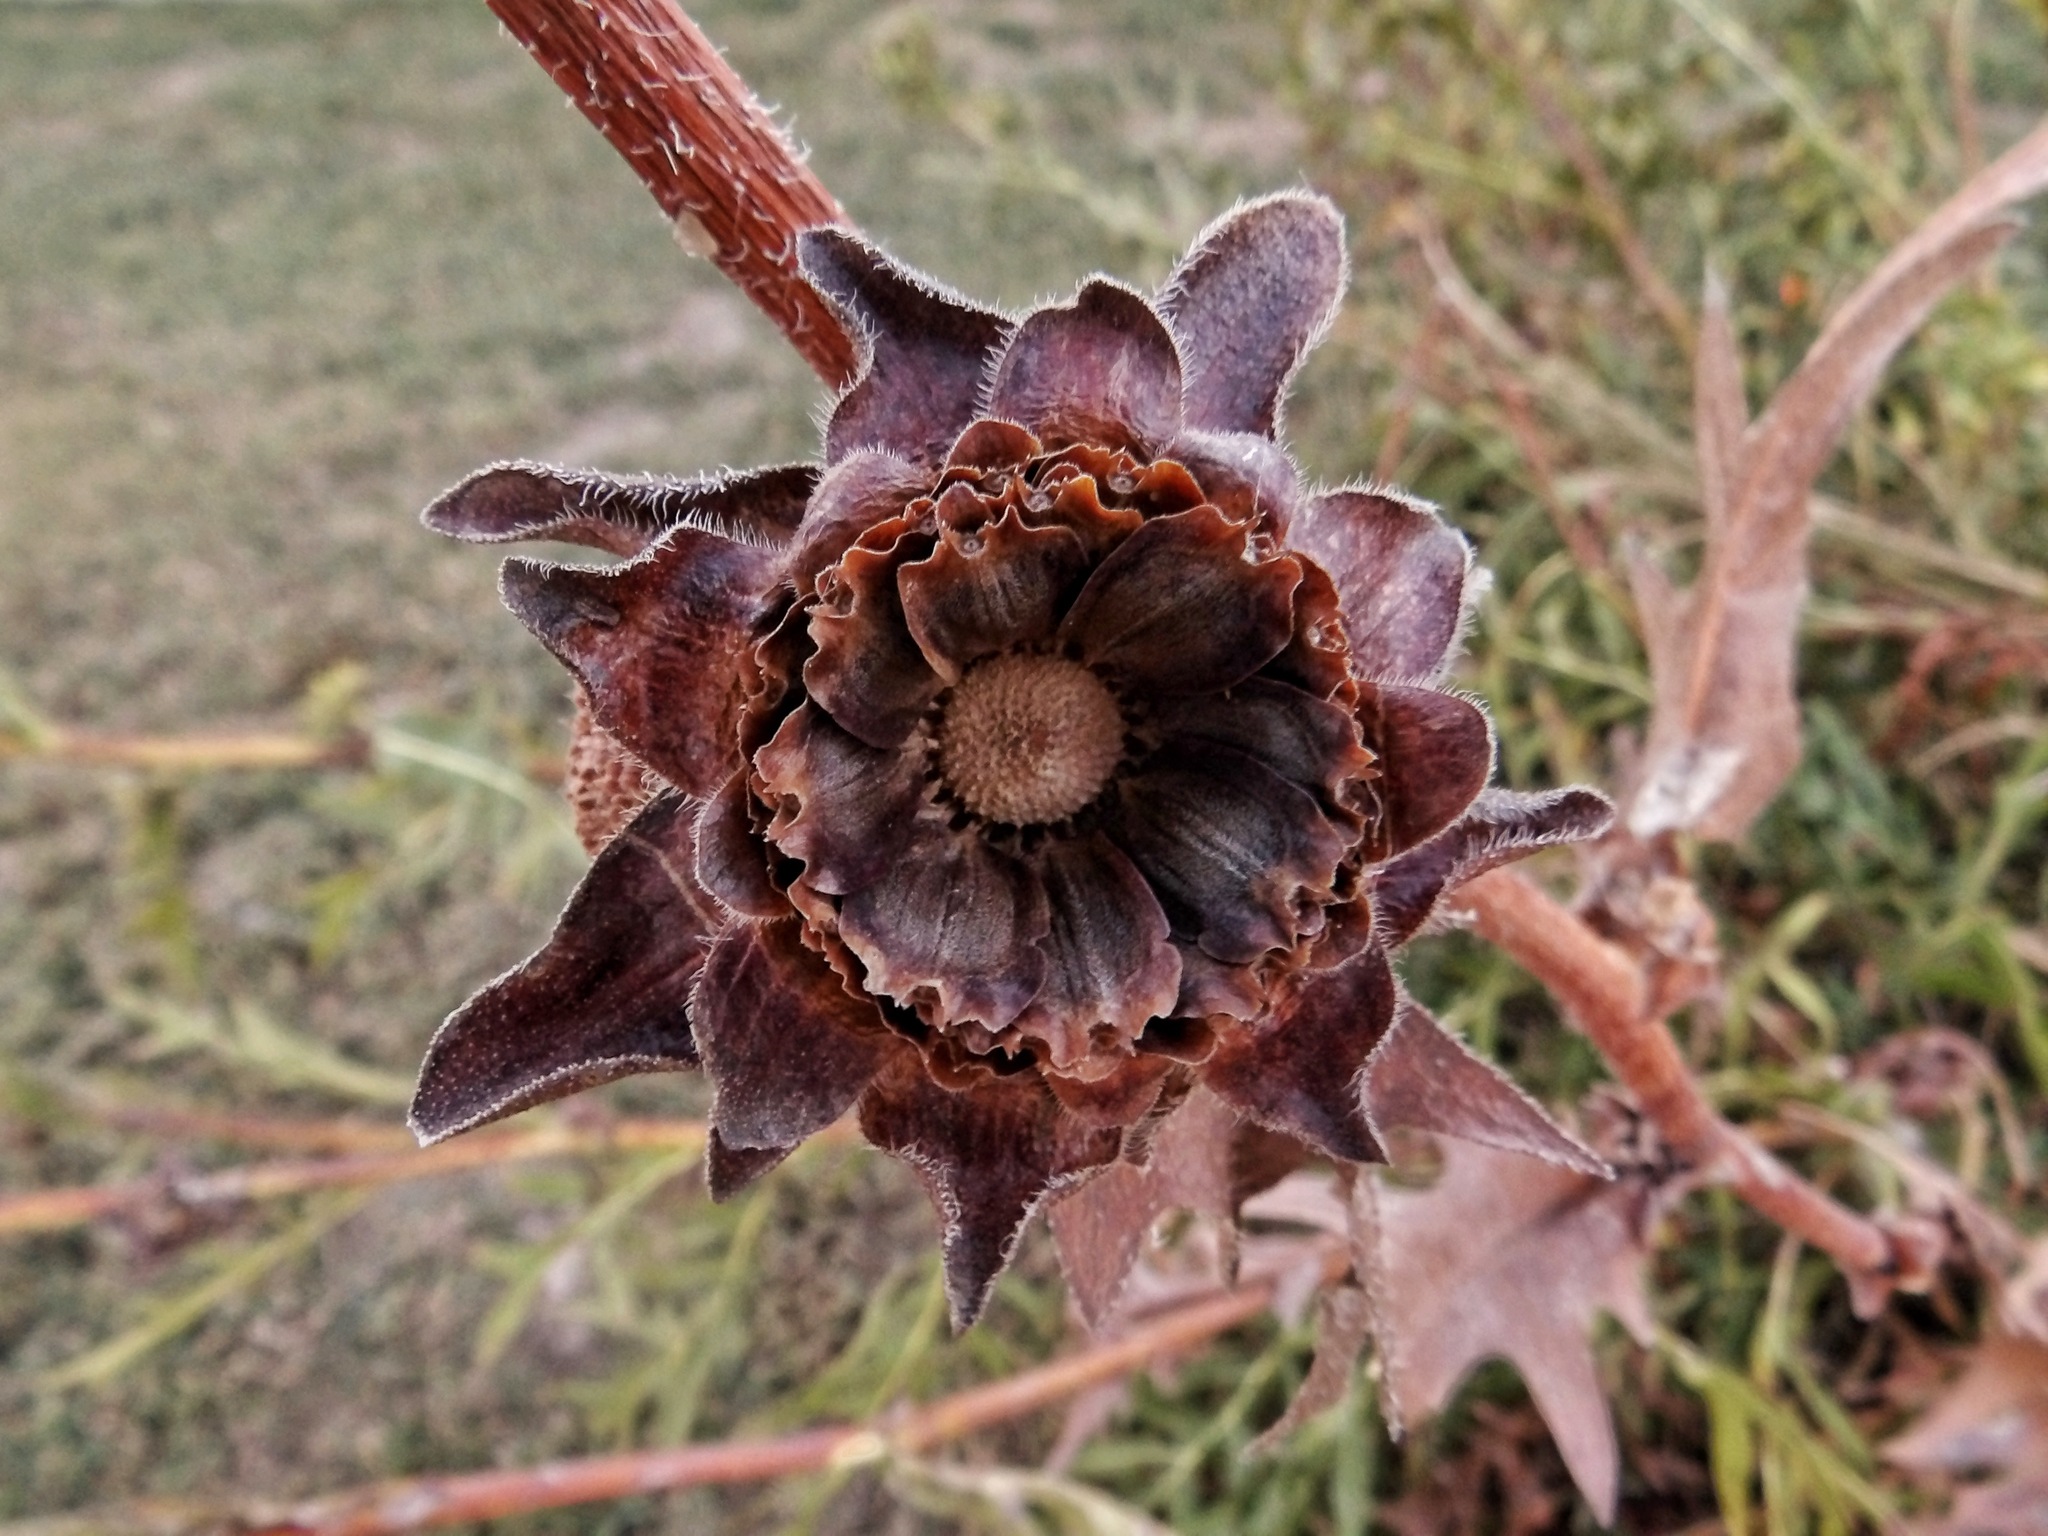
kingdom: Plantae
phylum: Tracheophyta
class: Magnoliopsida
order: Asterales
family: Asteraceae
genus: Silphium
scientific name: Silphium laciniatum
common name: Polarplant
